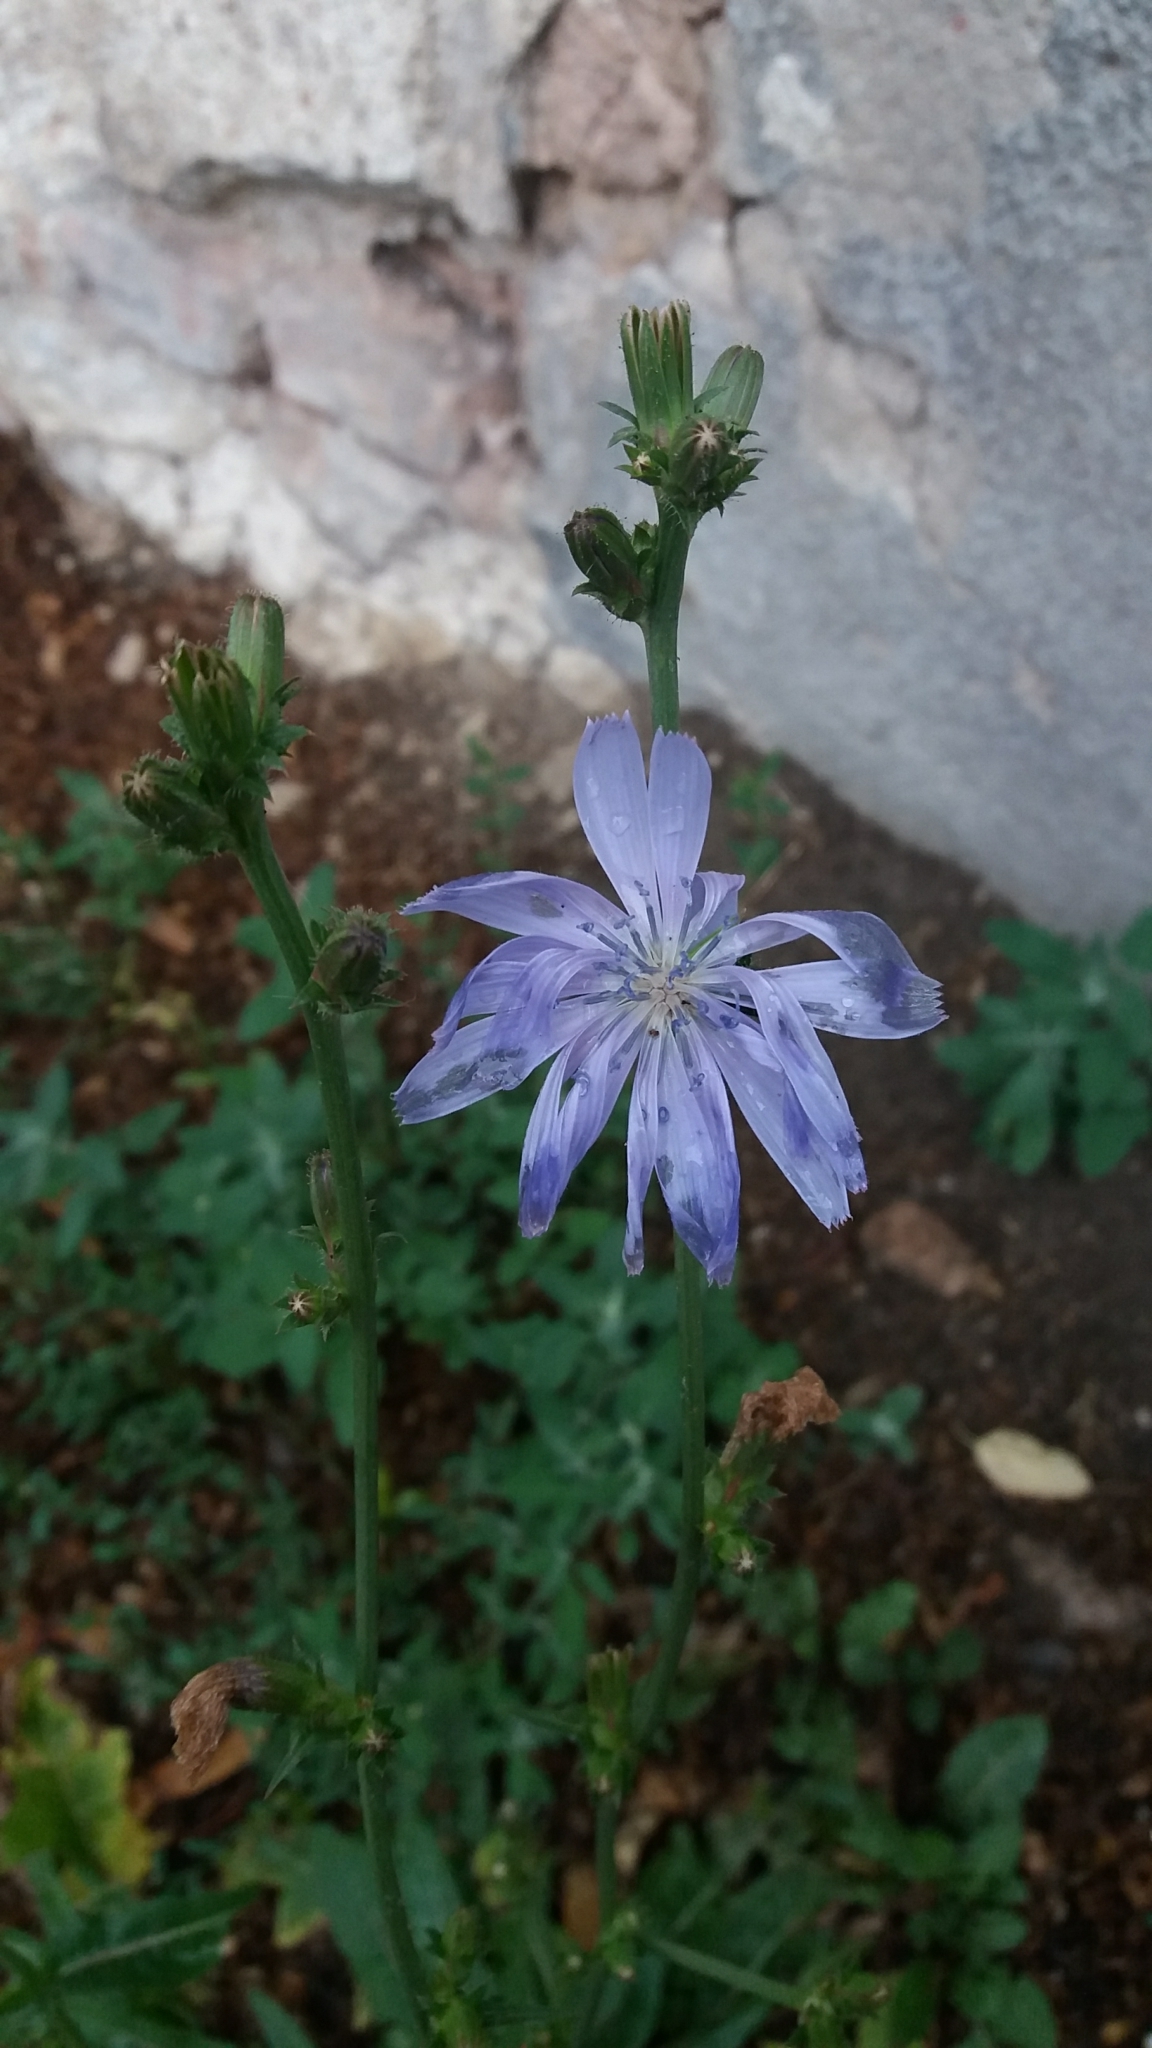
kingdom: Plantae
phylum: Tracheophyta
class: Magnoliopsida
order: Asterales
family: Asteraceae
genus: Cichorium
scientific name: Cichorium intybus
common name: Chicory
